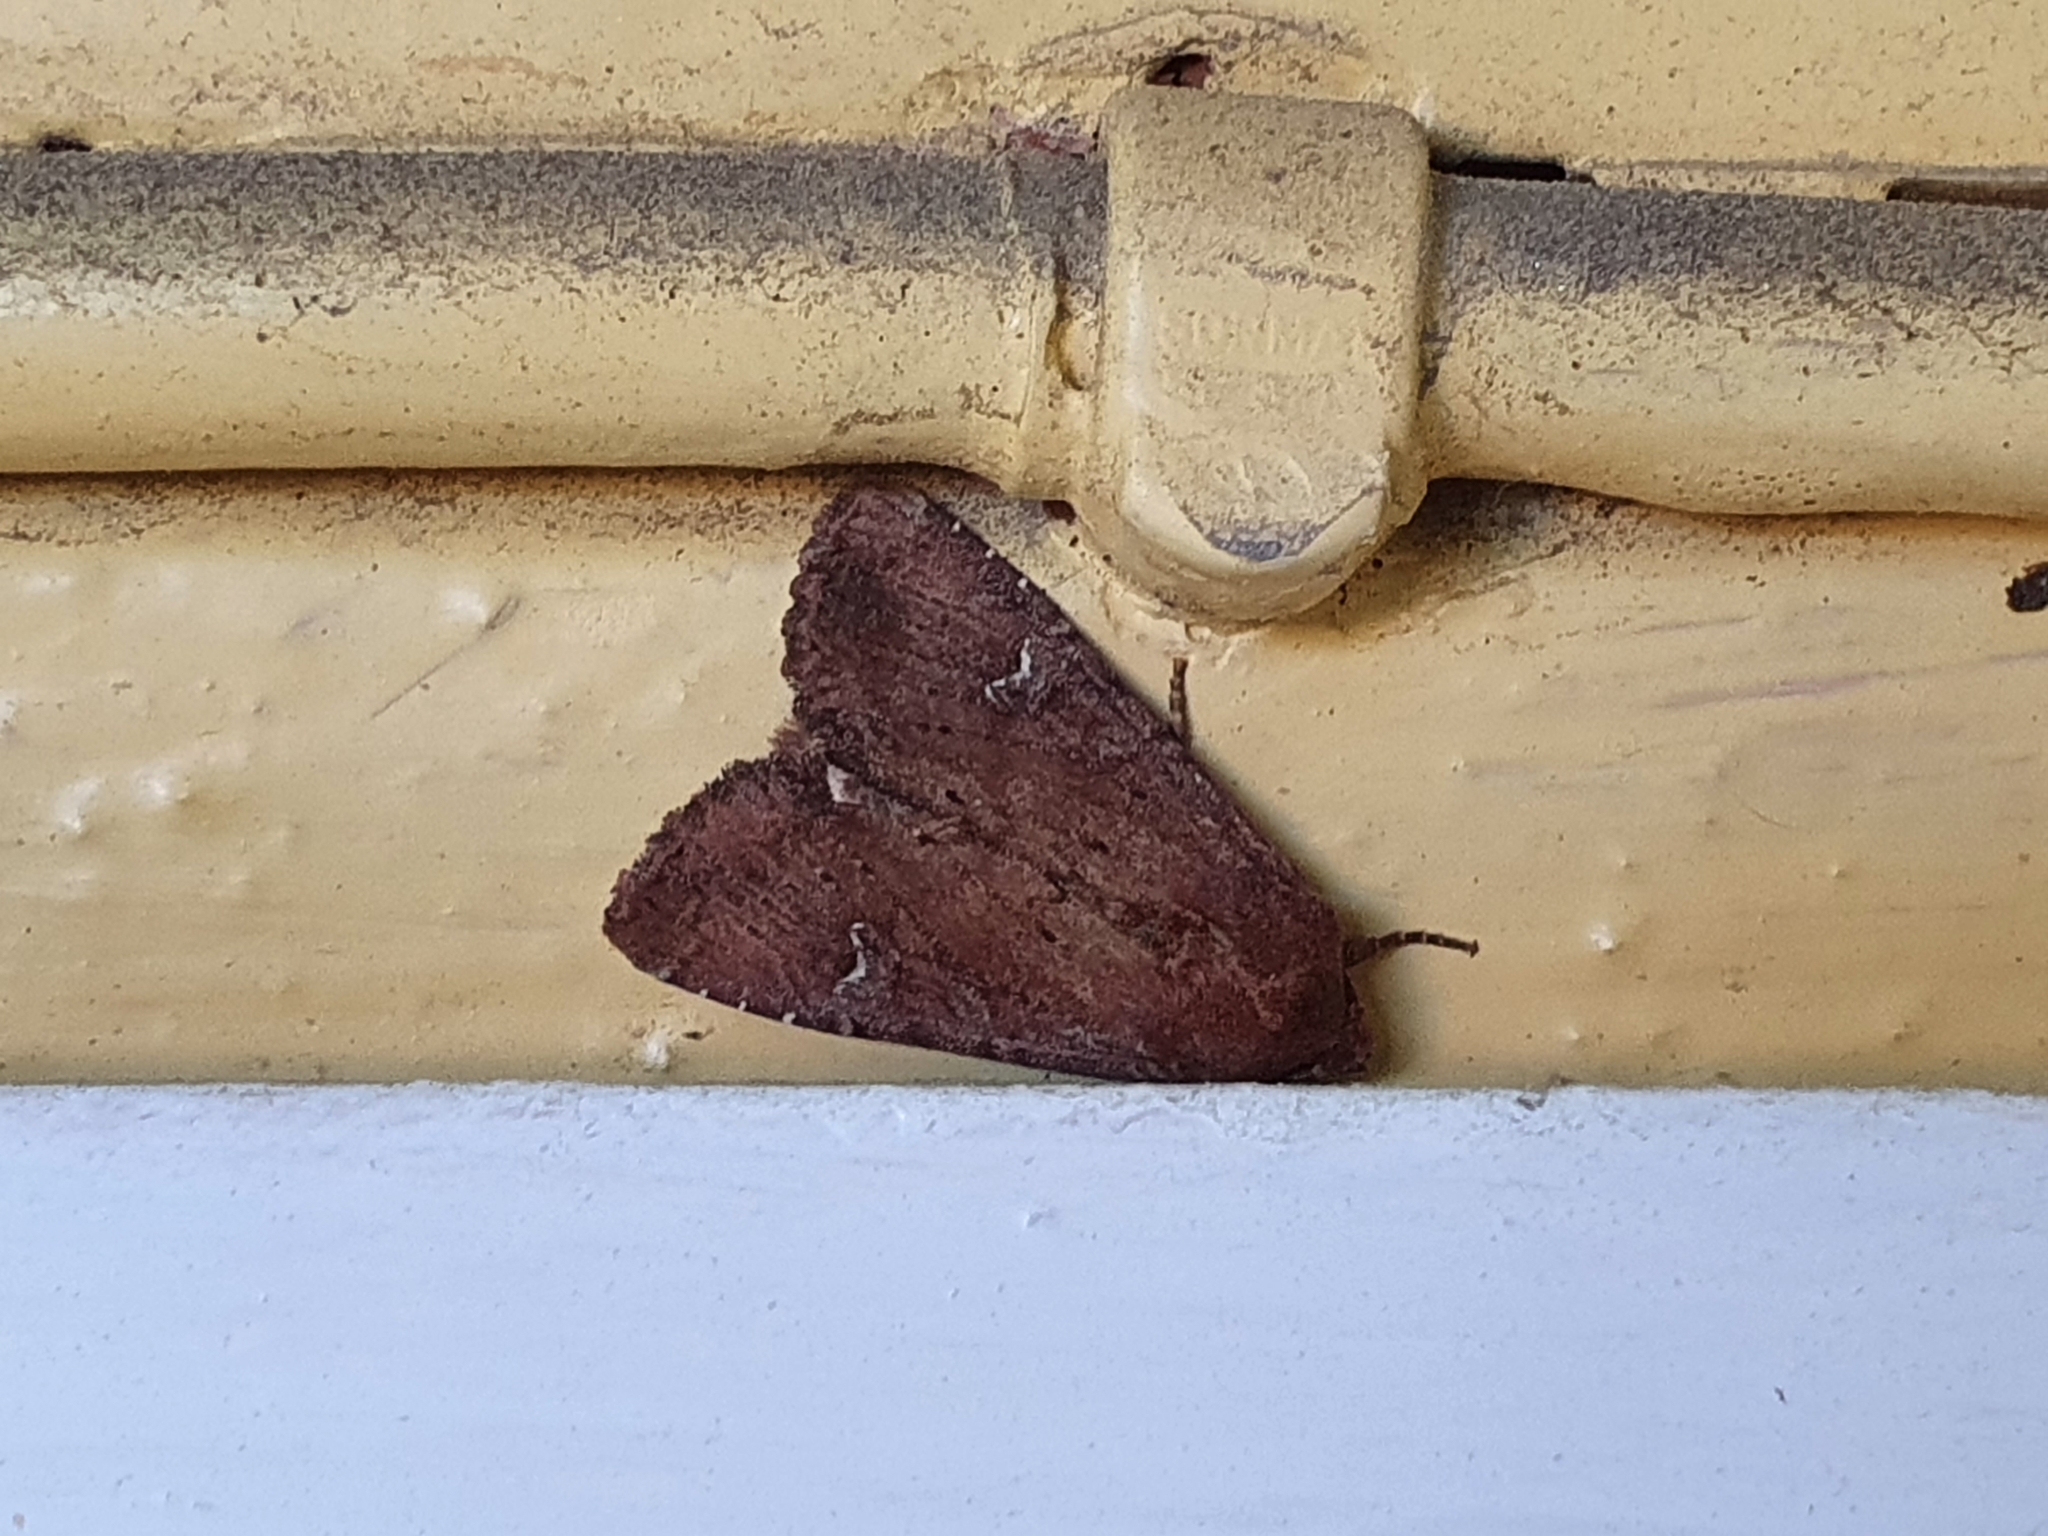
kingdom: Animalia
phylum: Arthropoda
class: Insecta
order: Lepidoptera
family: Noctuidae
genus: Apamea
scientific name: Apamea lateritia
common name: Scarce brindle
